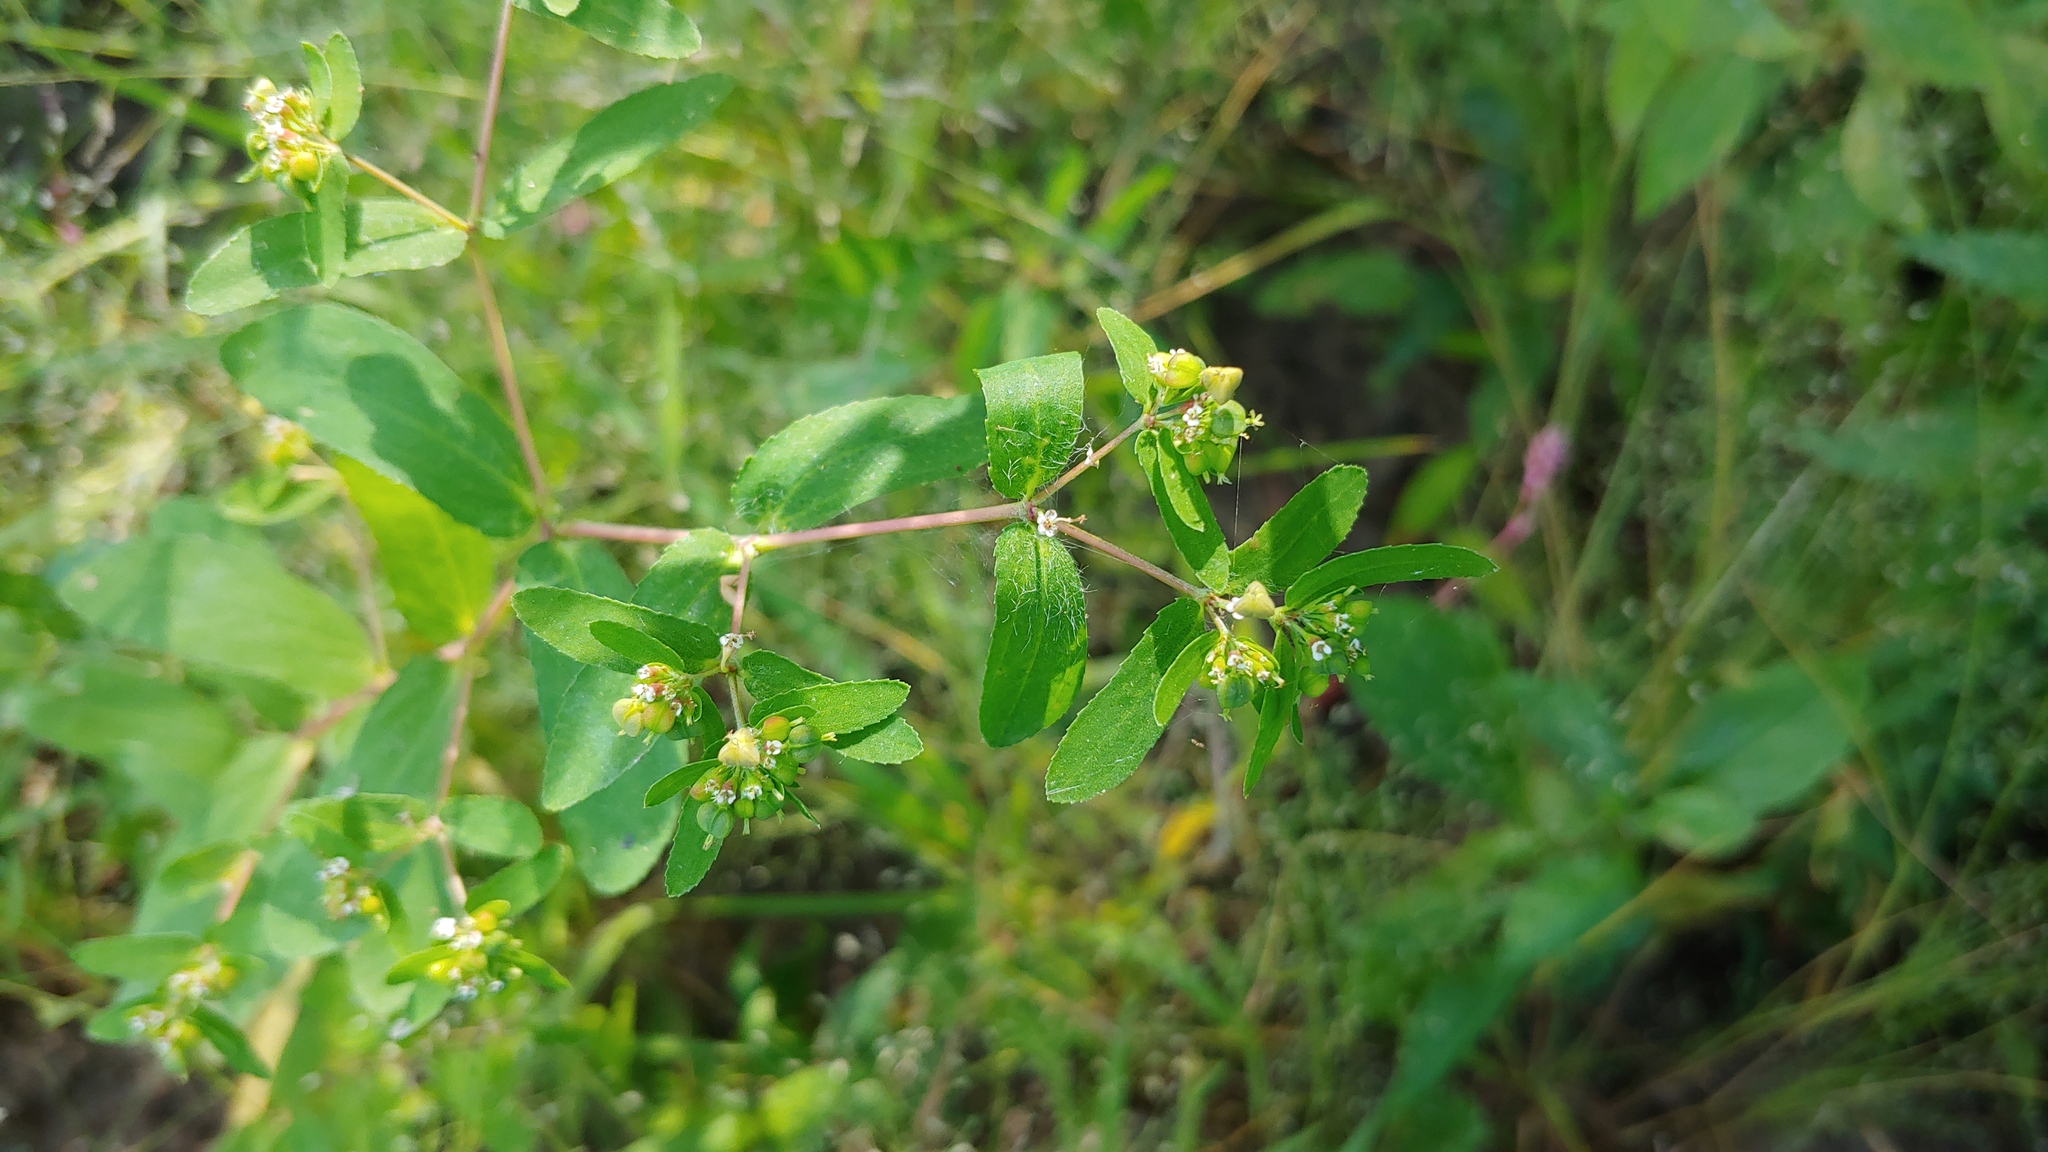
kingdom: Plantae
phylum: Tracheophyta
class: Magnoliopsida
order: Malpighiales
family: Euphorbiaceae
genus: Euphorbia
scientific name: Euphorbia nutans
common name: Eyebane
